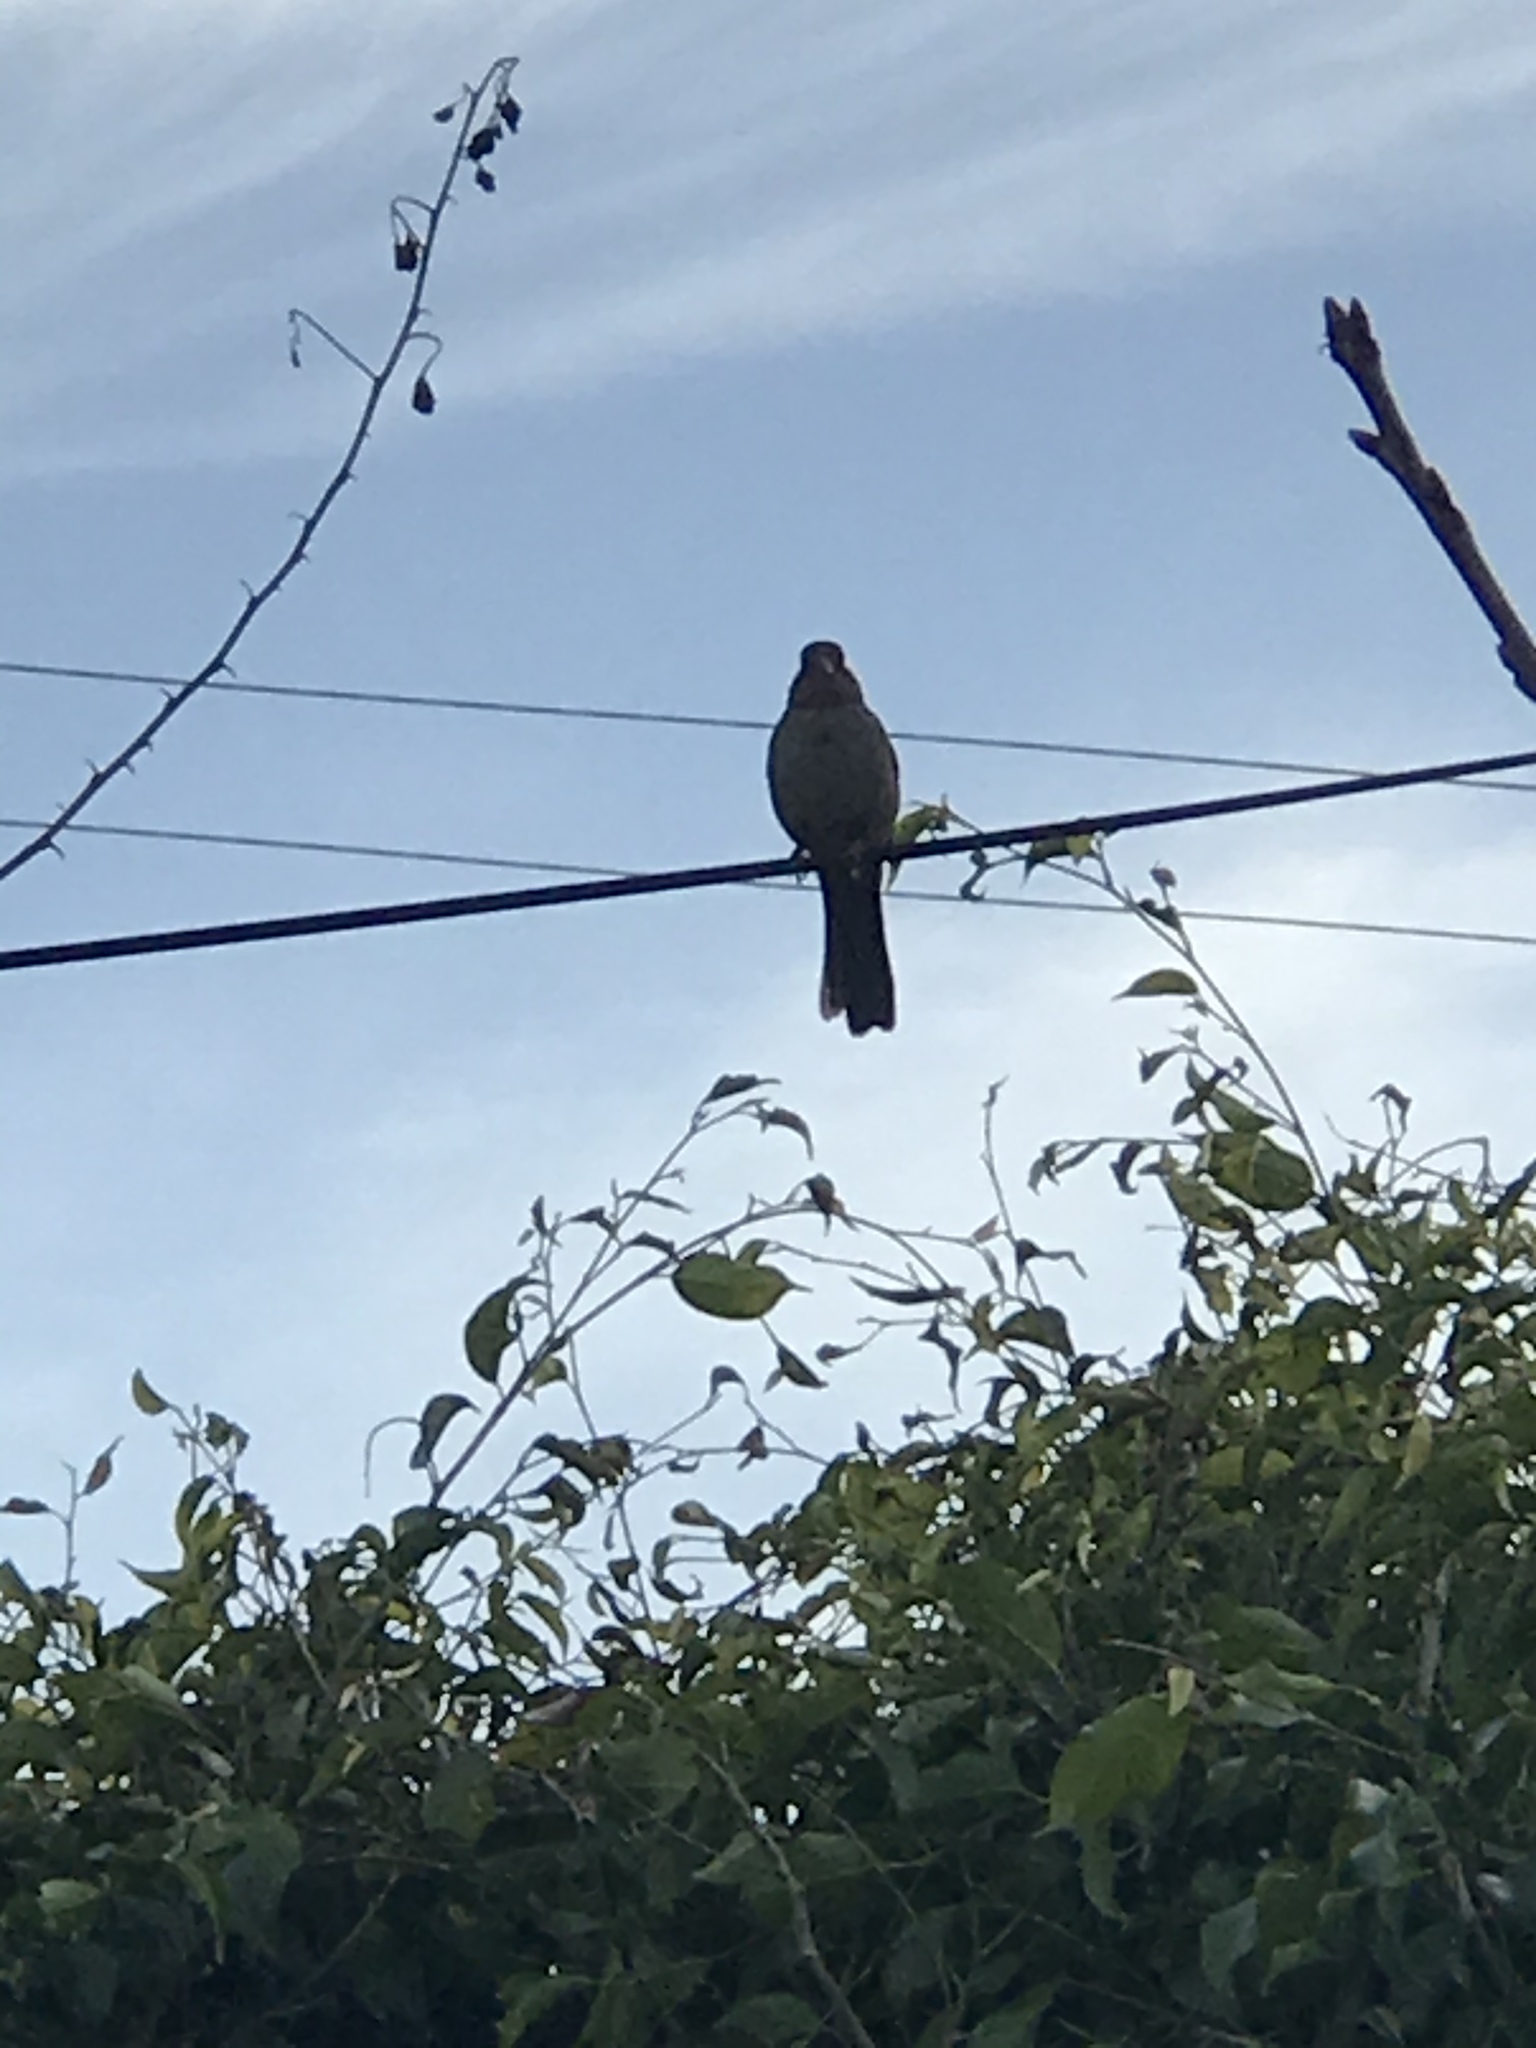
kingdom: Animalia
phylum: Chordata
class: Aves
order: Passeriformes
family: Passerellidae
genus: Melozone
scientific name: Melozone crissalis
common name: California towhee
